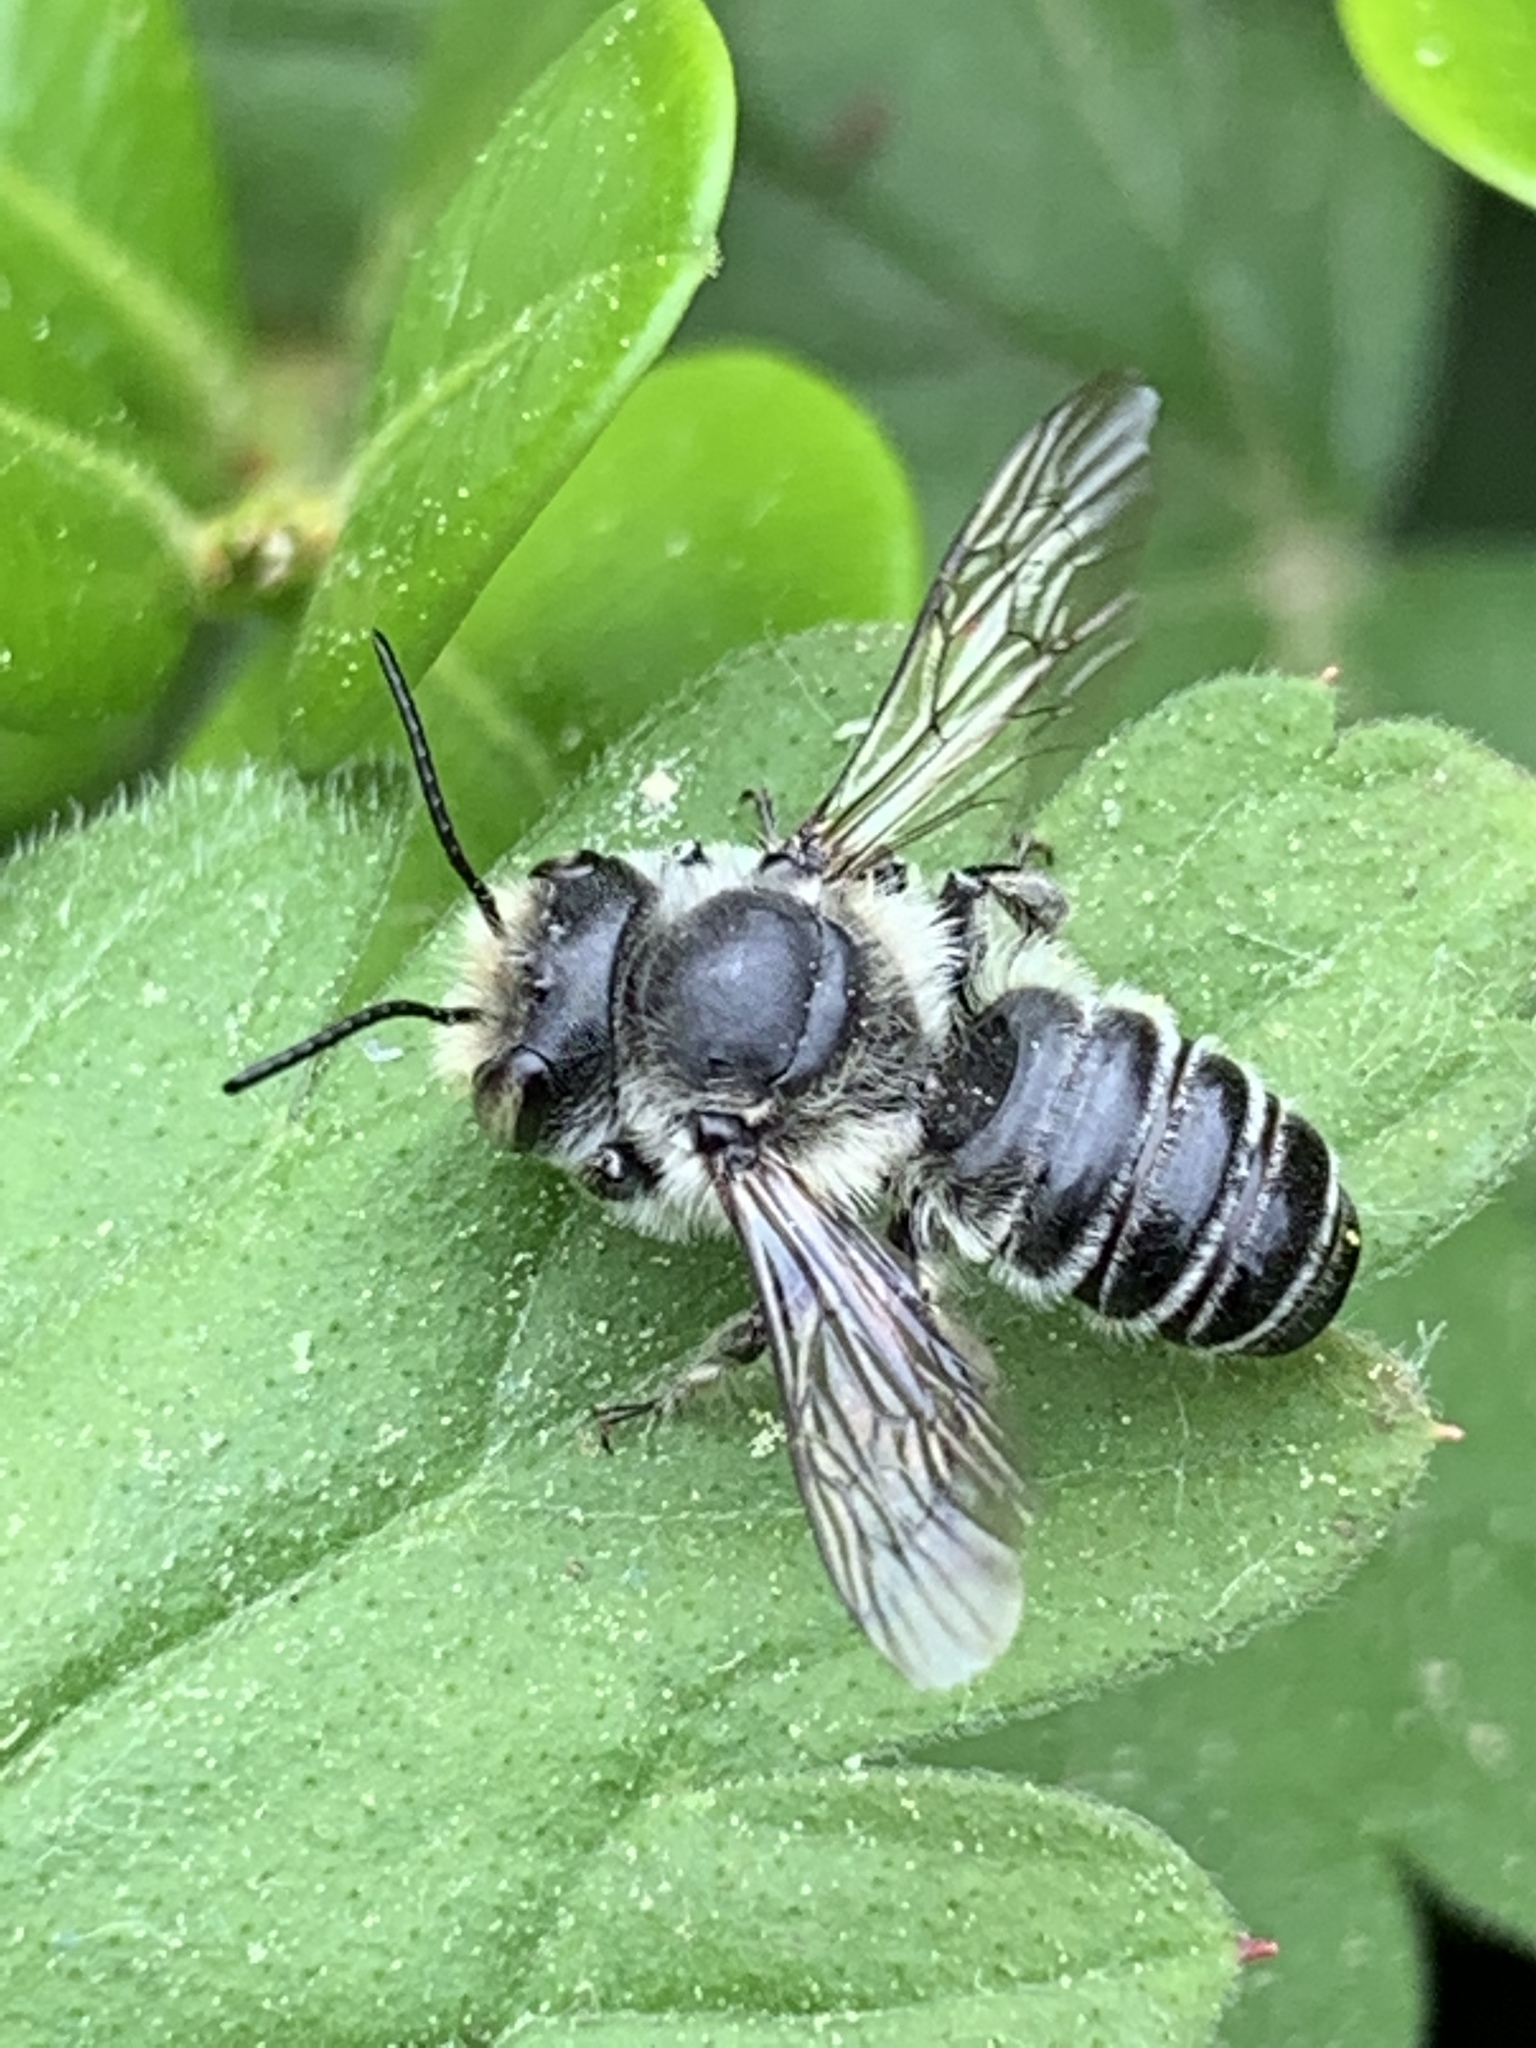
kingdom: Animalia
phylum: Arthropoda
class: Insecta
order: Hymenoptera
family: Megachilidae
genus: Megachile
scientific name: Megachile
